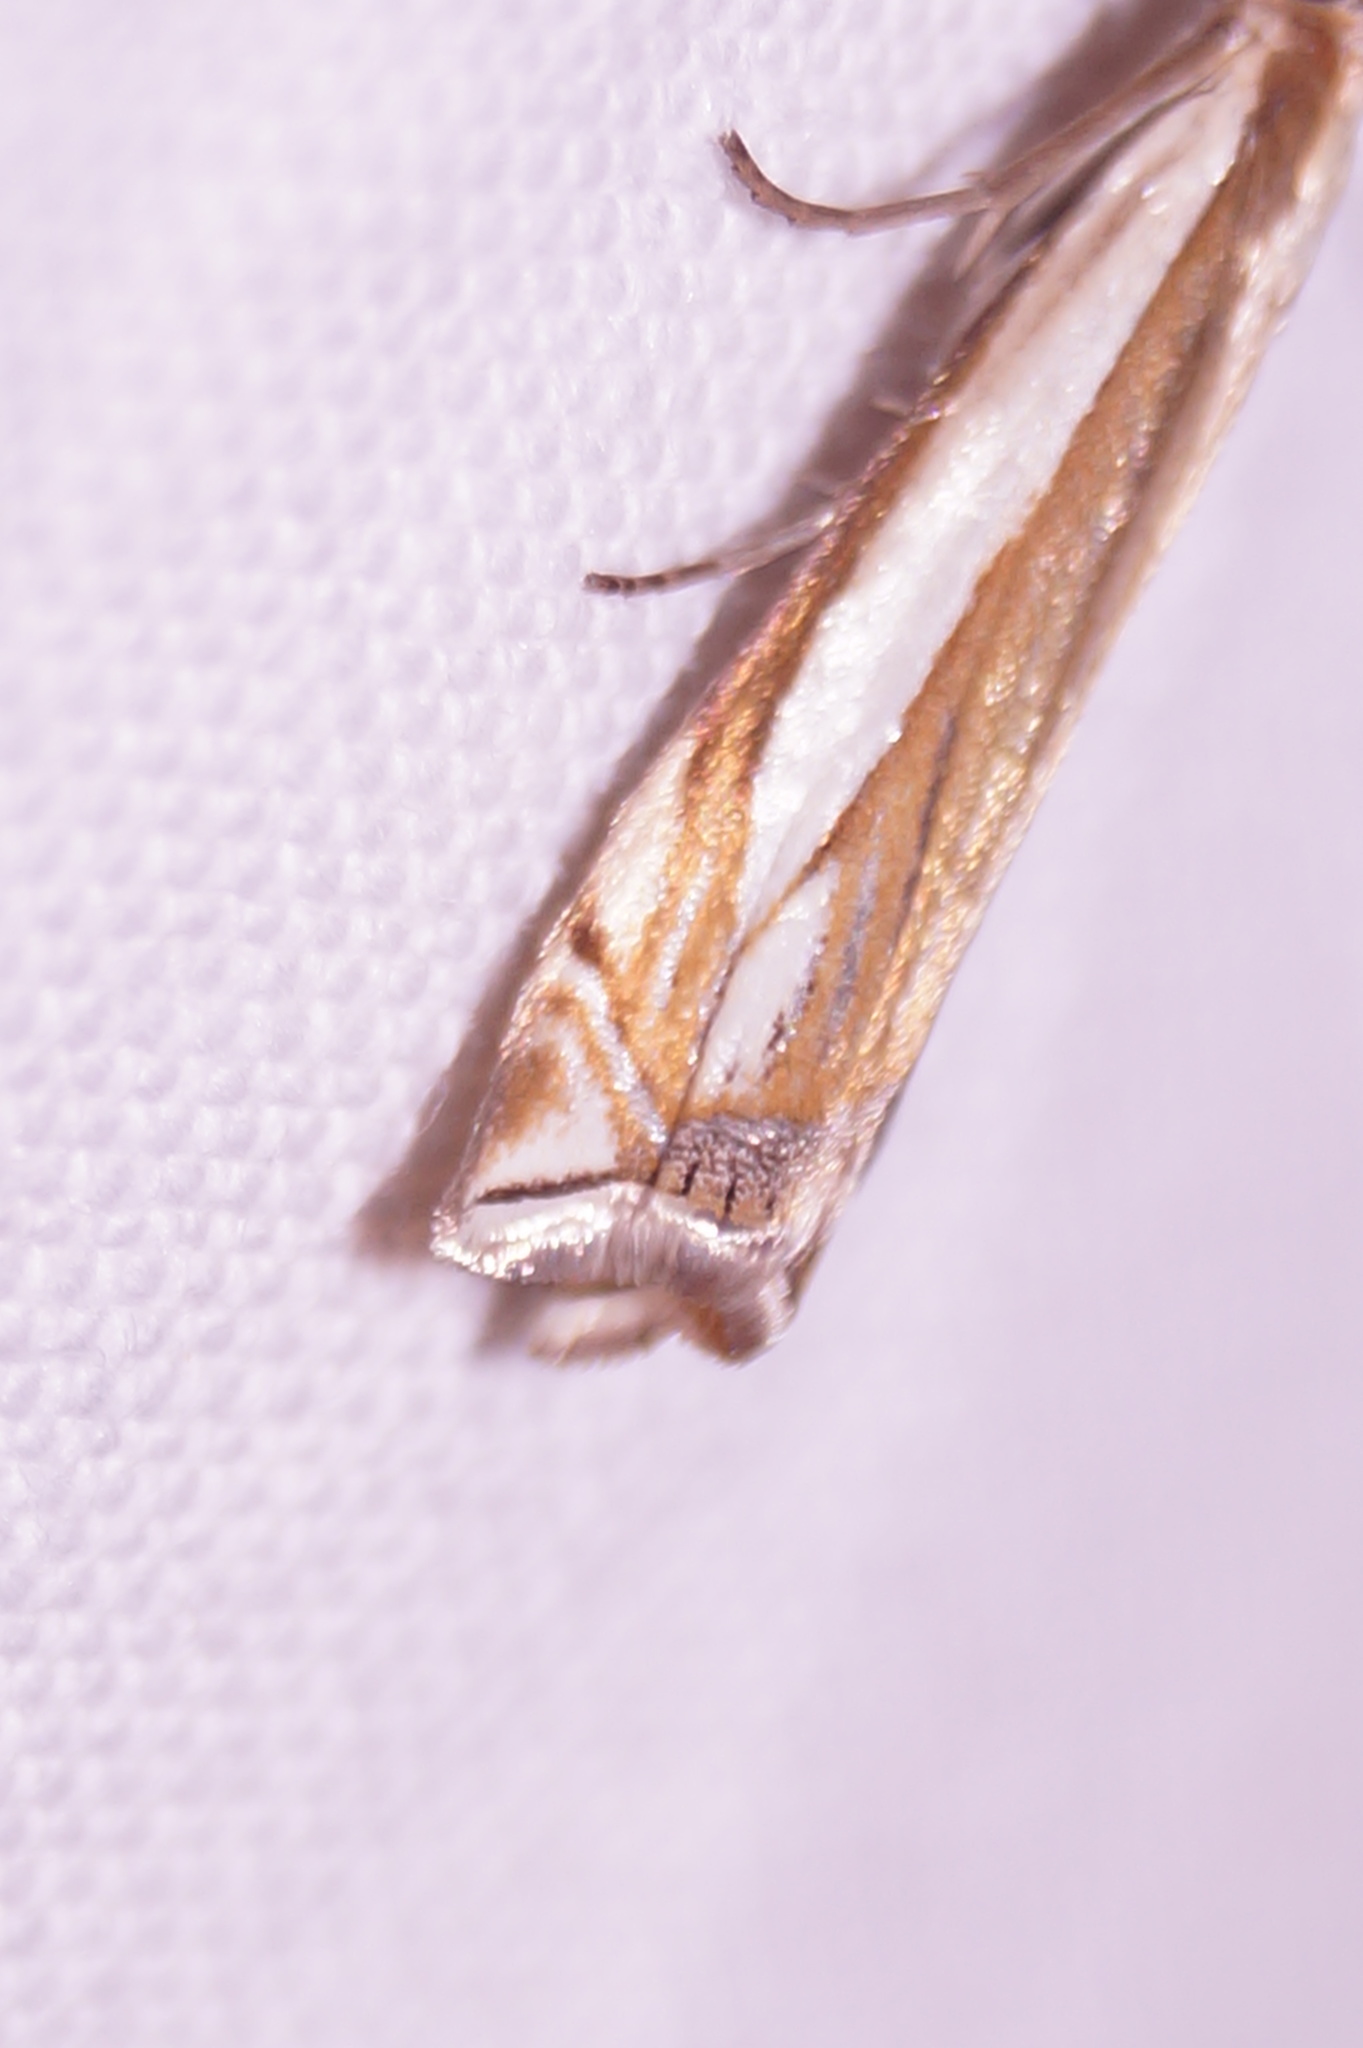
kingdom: Animalia
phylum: Arthropoda
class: Insecta
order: Lepidoptera
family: Crambidae
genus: Crambus
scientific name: Crambus pascuella
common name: Inlaid grass-veneer
